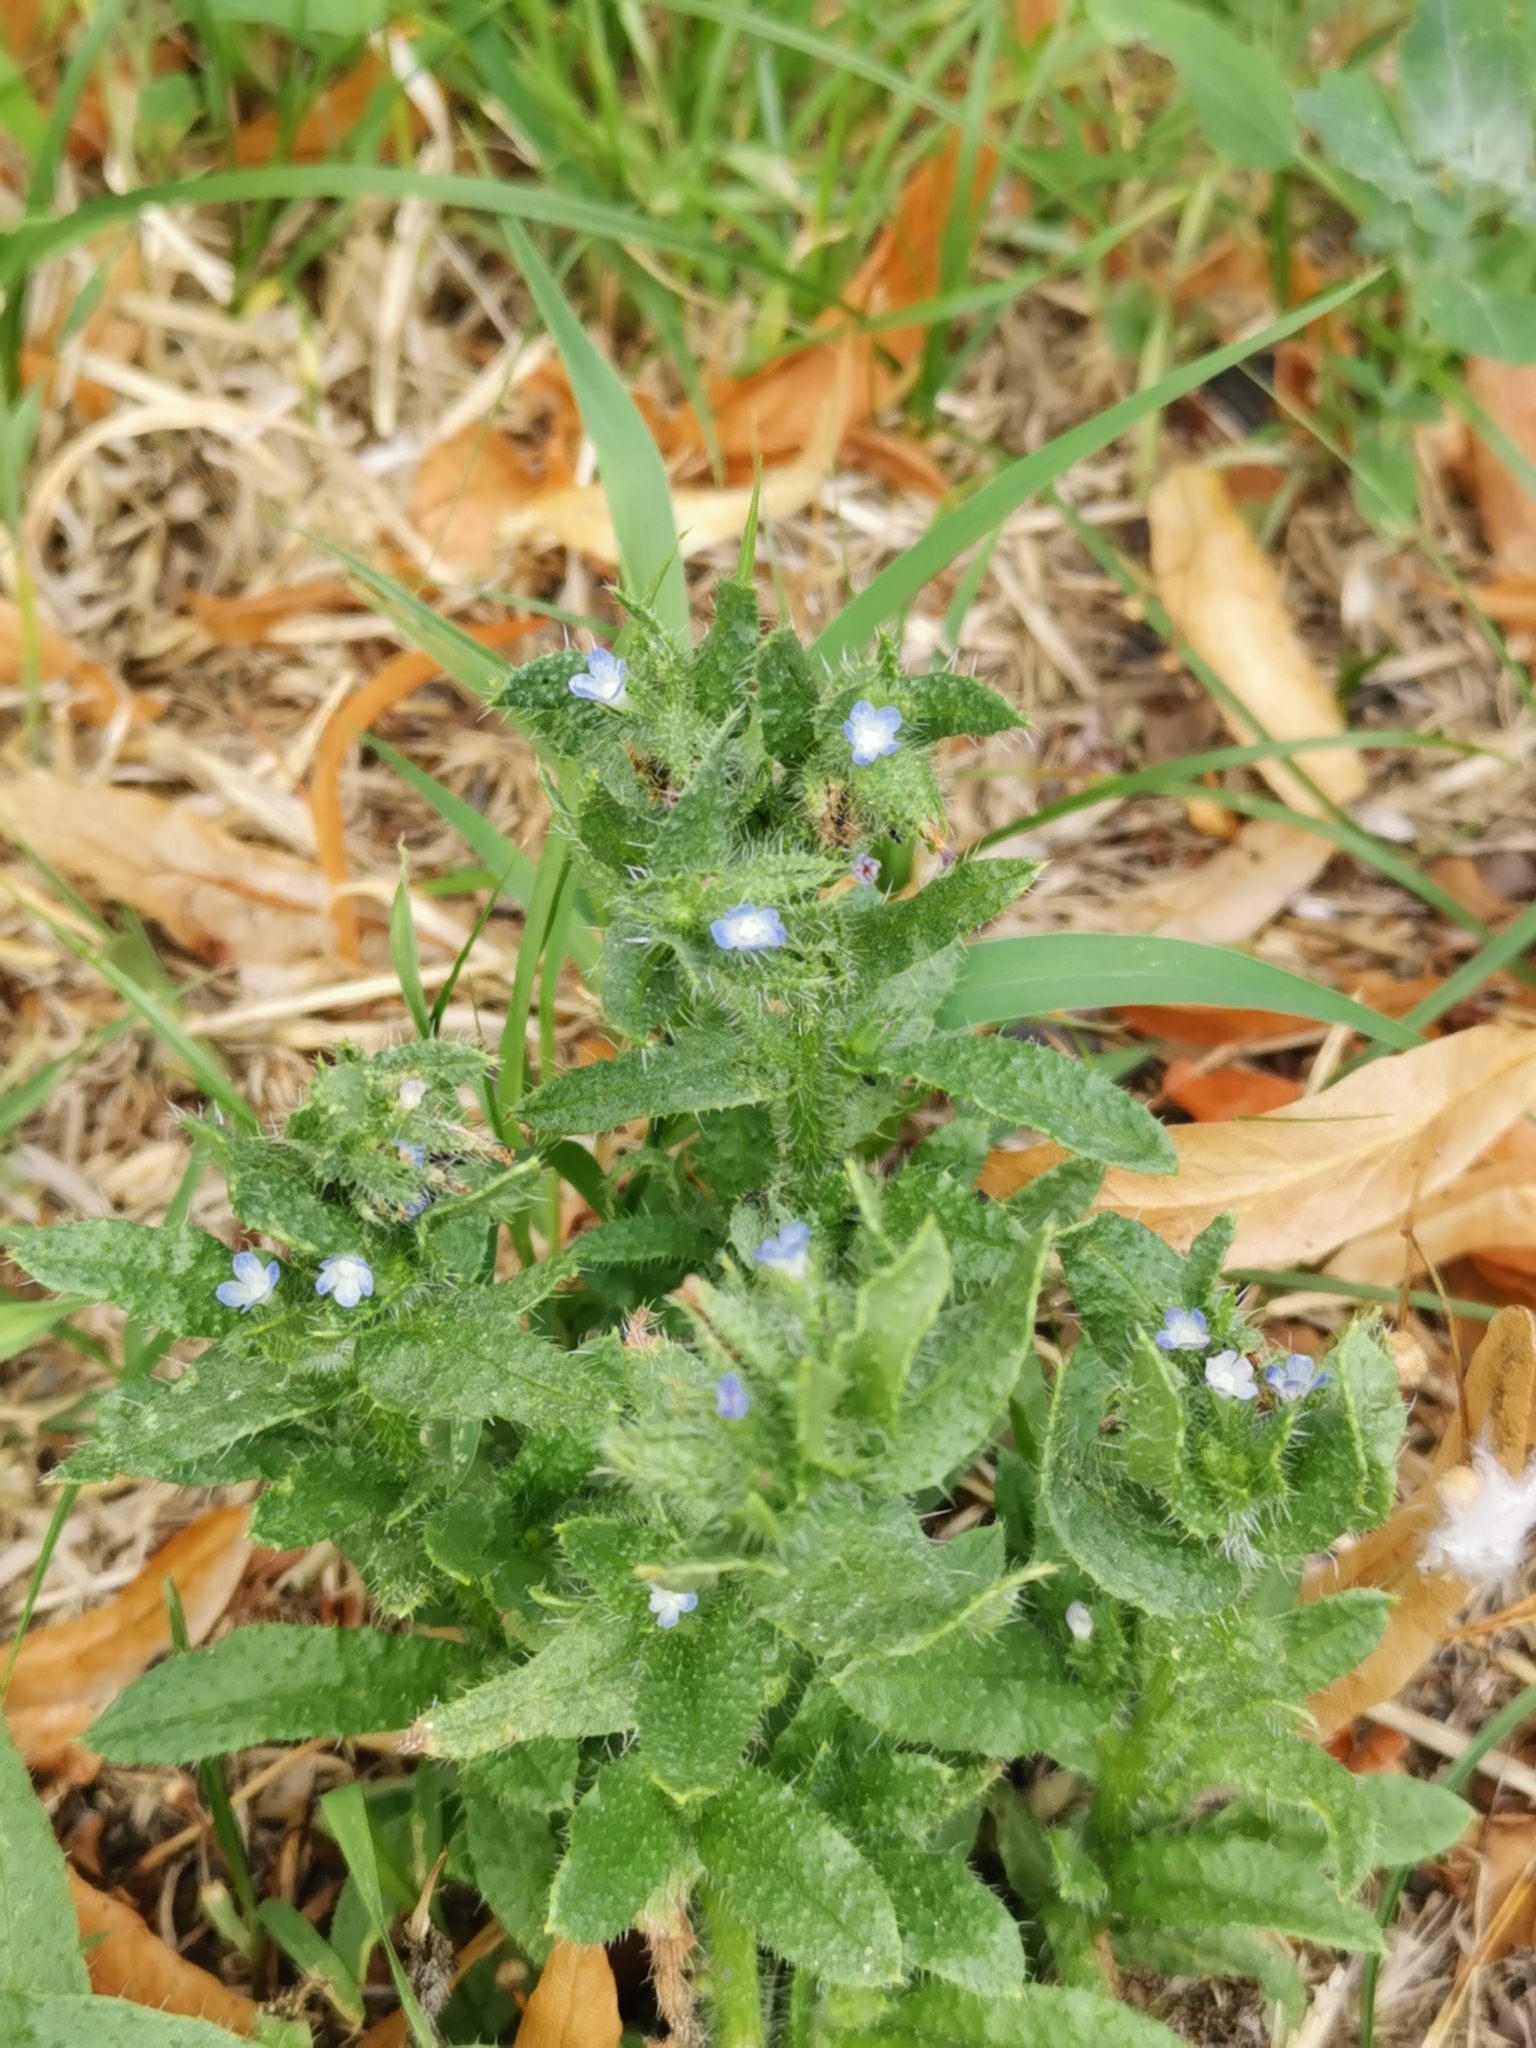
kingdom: Plantae
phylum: Tracheophyta
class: Magnoliopsida
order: Boraginales
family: Boraginaceae
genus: Lycopsis
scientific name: Lycopsis arvensis
